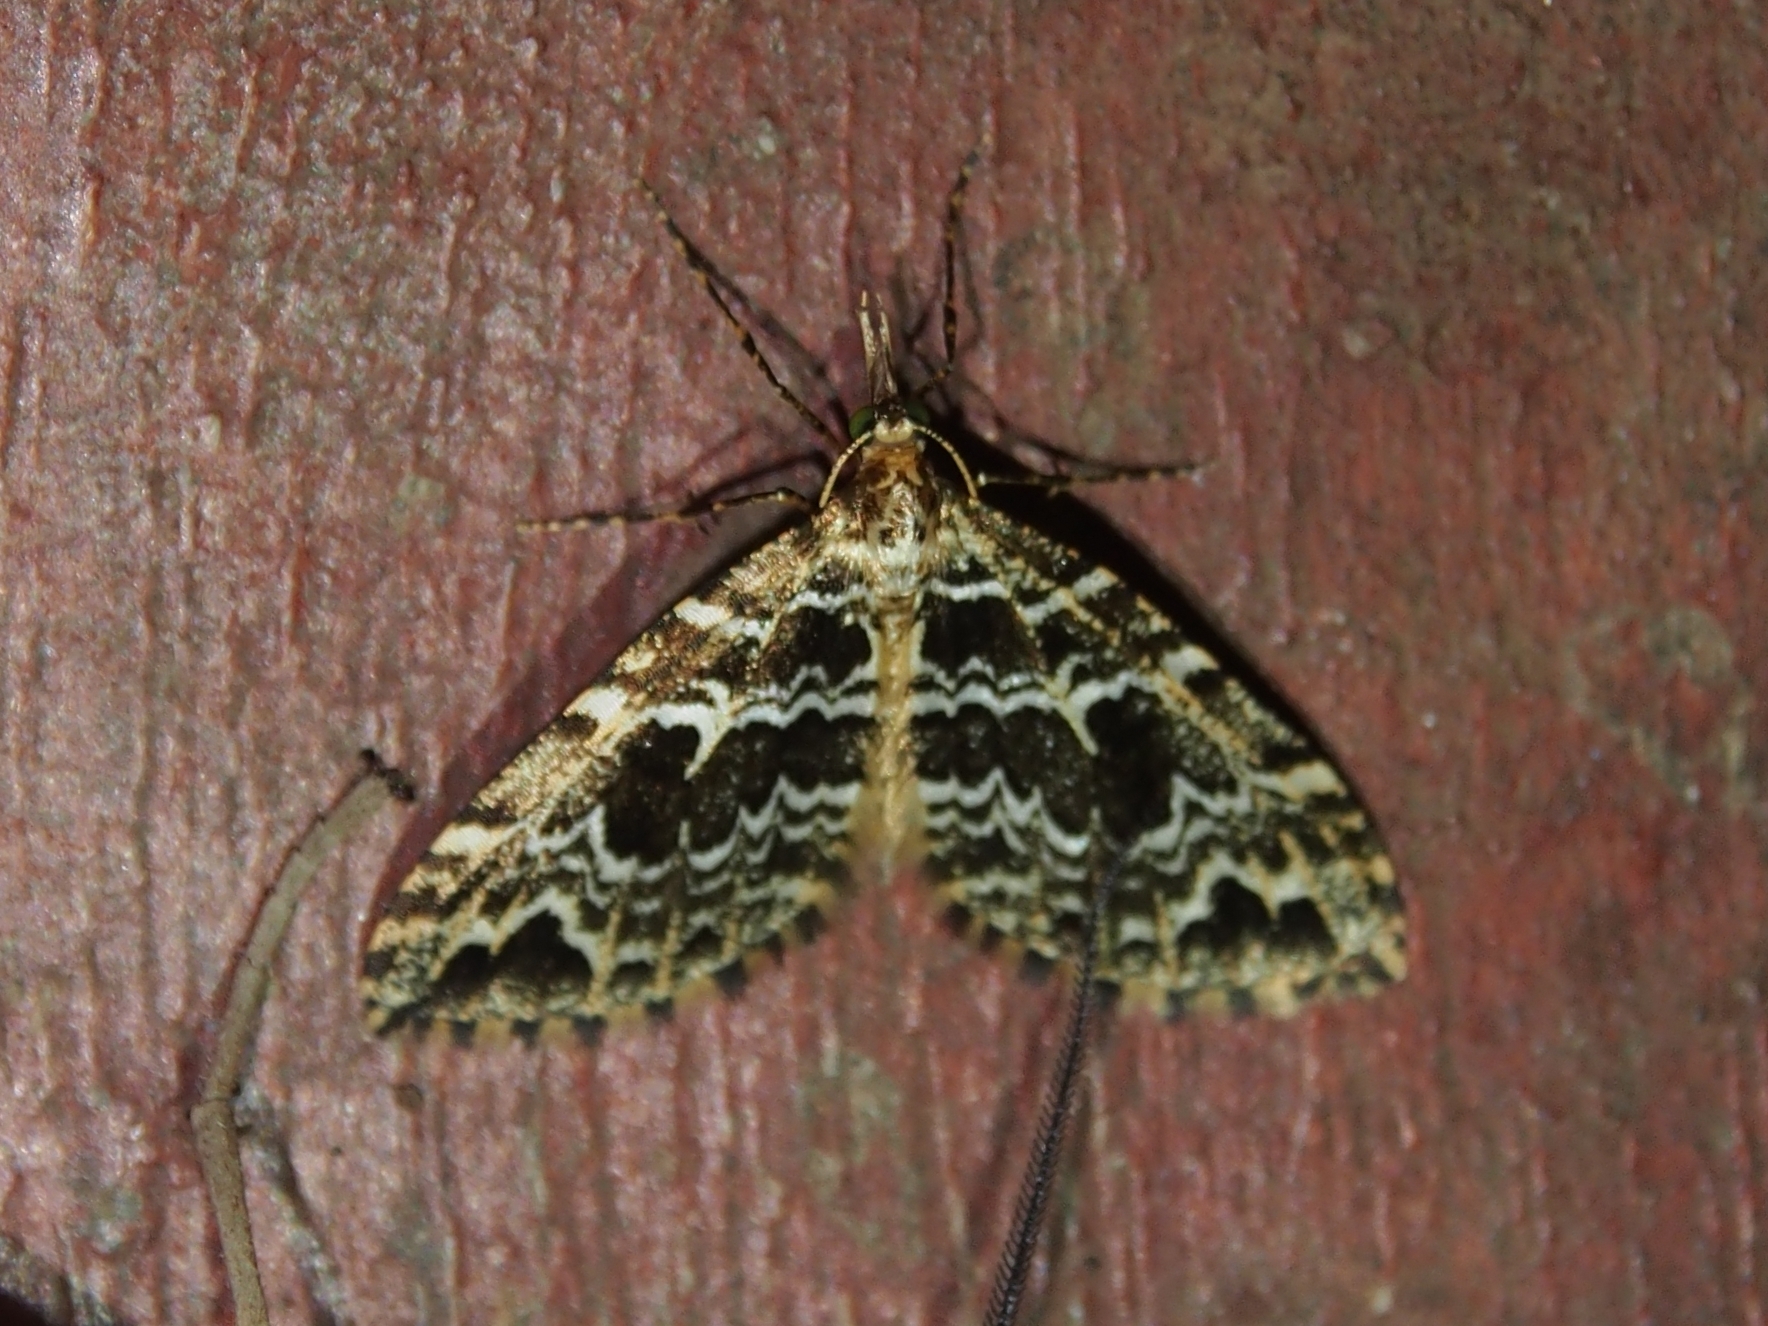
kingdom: Animalia
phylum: Arthropoda
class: Insecta
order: Lepidoptera
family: Geometridae
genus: Psaliodes
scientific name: Psaliodes aurativena
